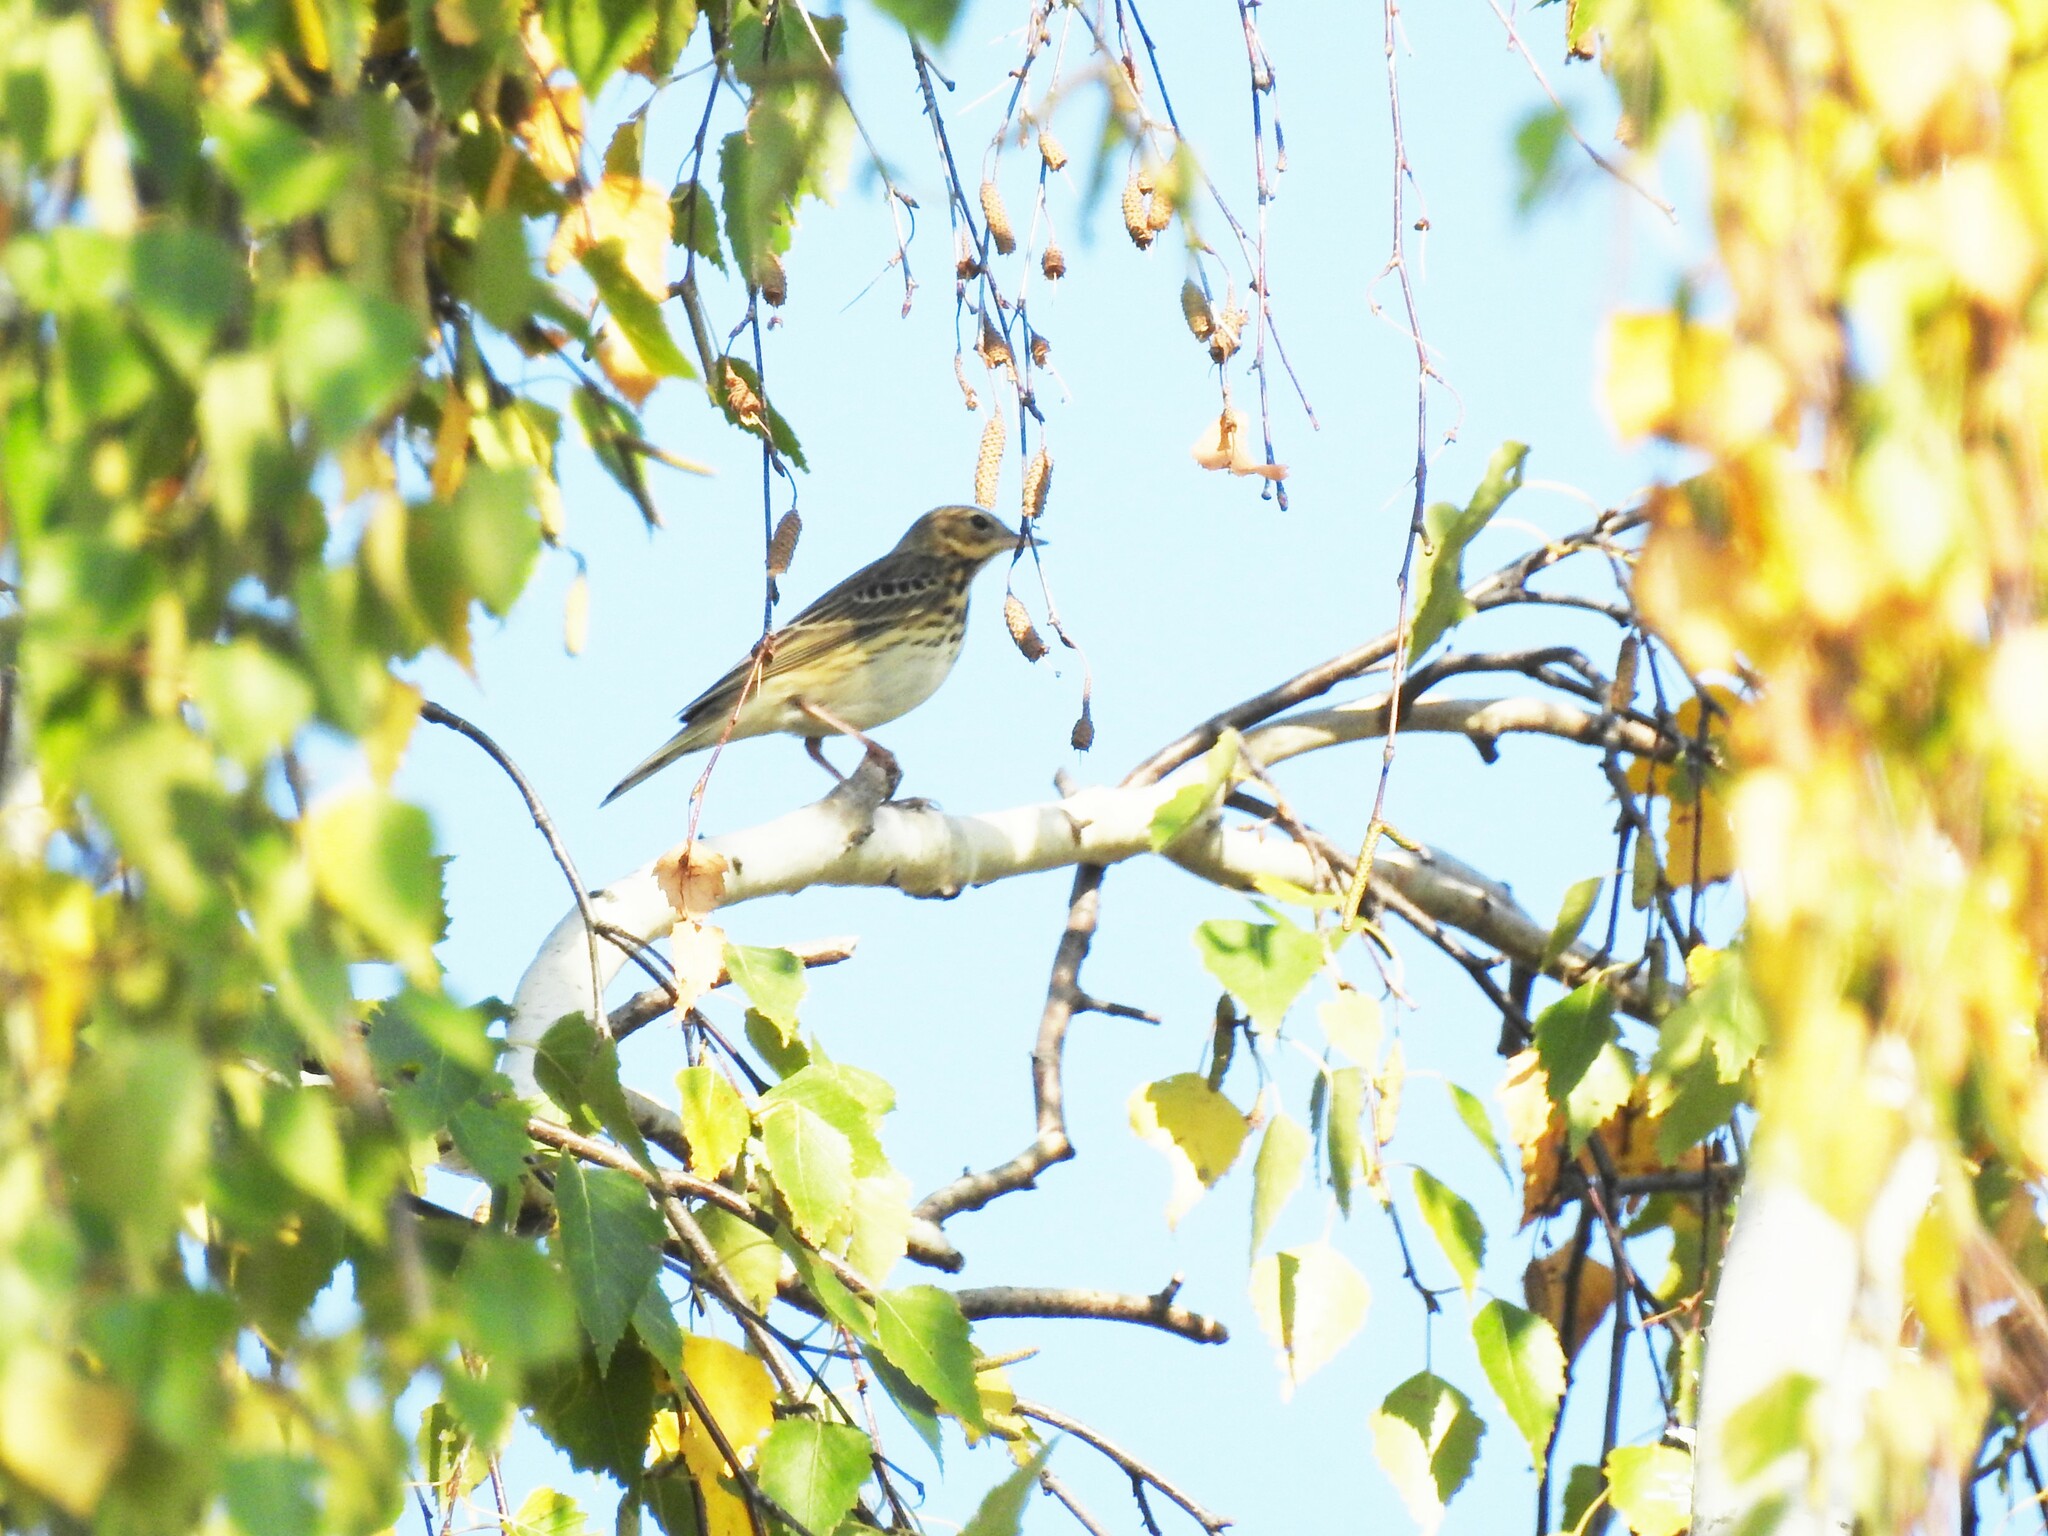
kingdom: Animalia
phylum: Chordata
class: Aves
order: Passeriformes
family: Motacillidae
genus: Anthus
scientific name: Anthus trivialis
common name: Tree pipit
